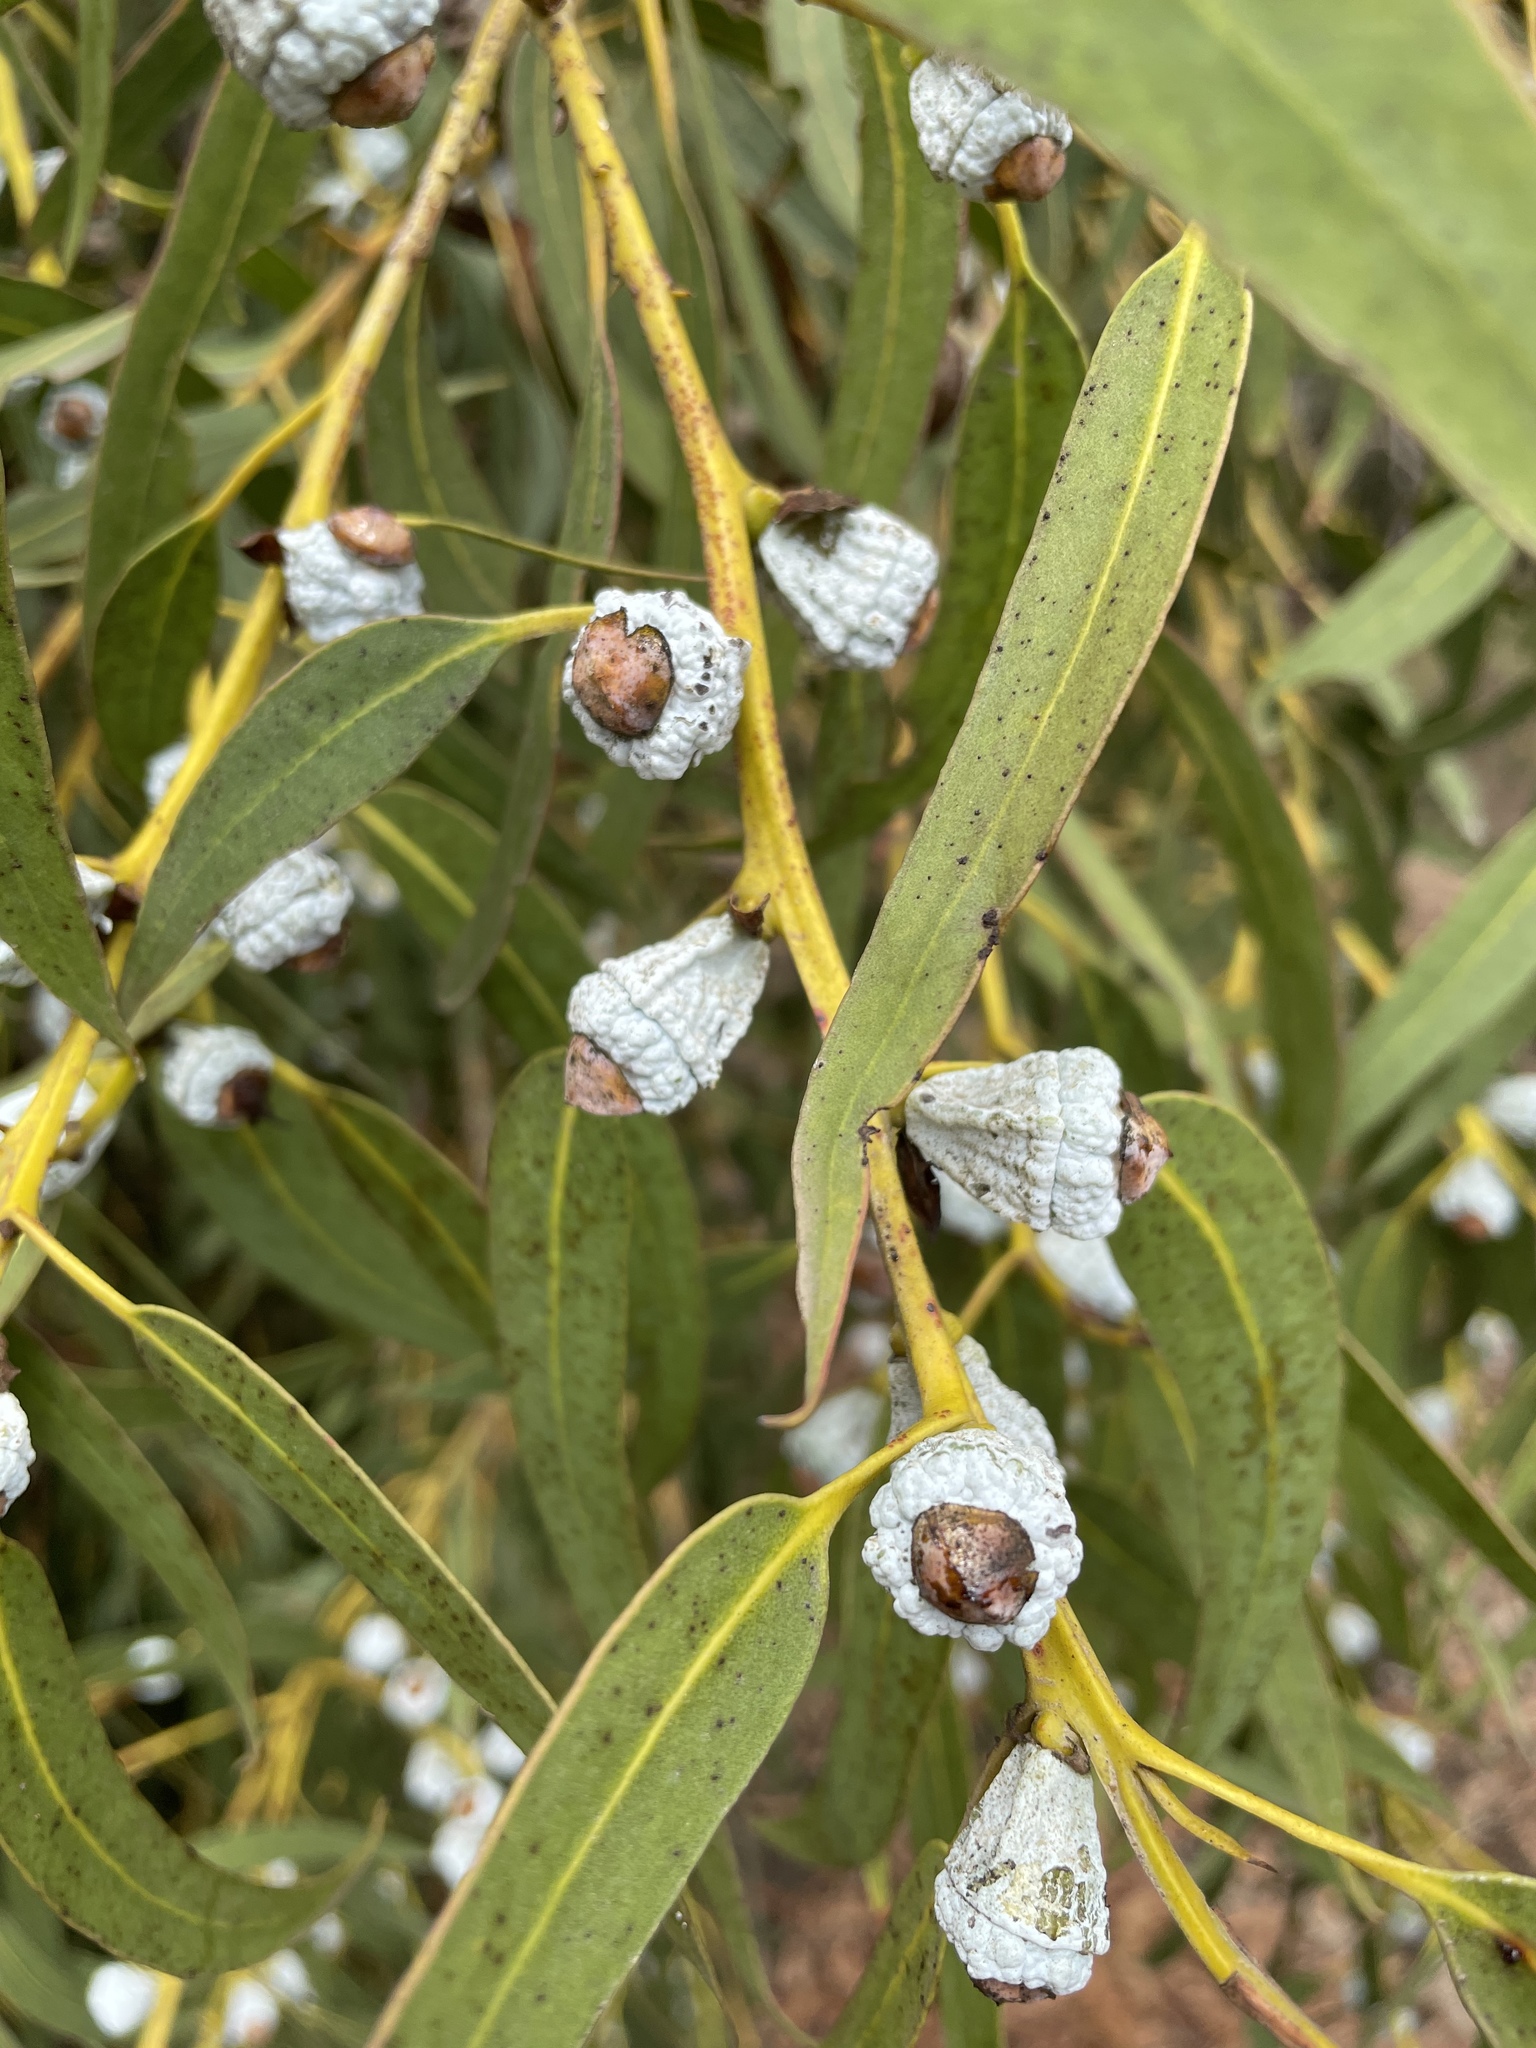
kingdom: Plantae
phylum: Tracheophyta
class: Magnoliopsida
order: Myrtales
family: Myrtaceae
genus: Eucalyptus
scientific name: Eucalyptus globulus
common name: Southern blue-gum
